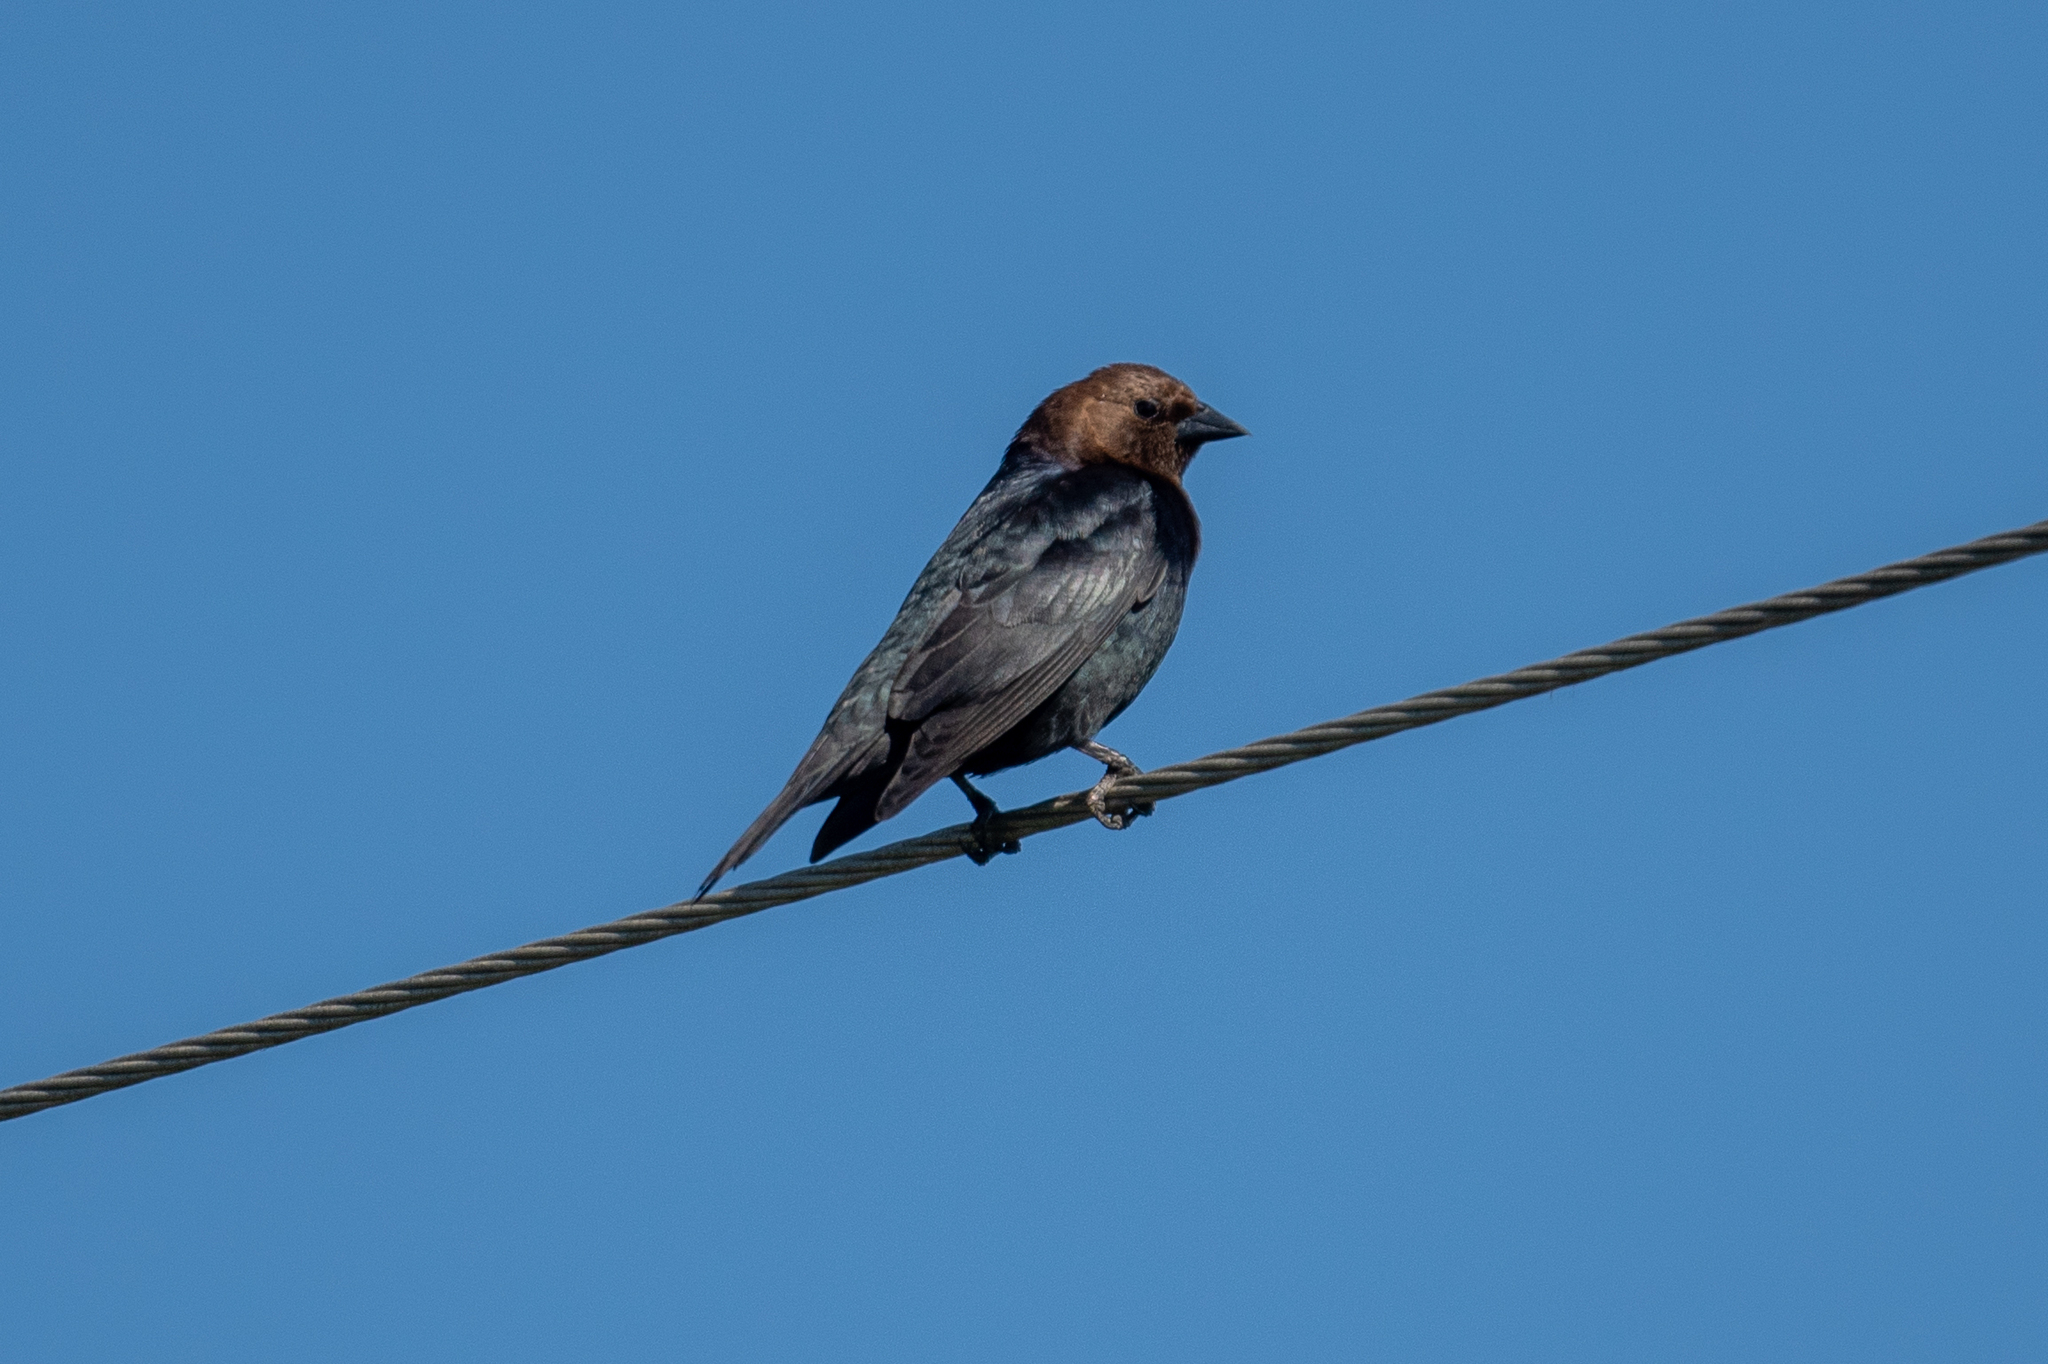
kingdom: Animalia
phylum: Chordata
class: Aves
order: Passeriformes
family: Icteridae
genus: Molothrus
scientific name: Molothrus ater
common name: Brown-headed cowbird
